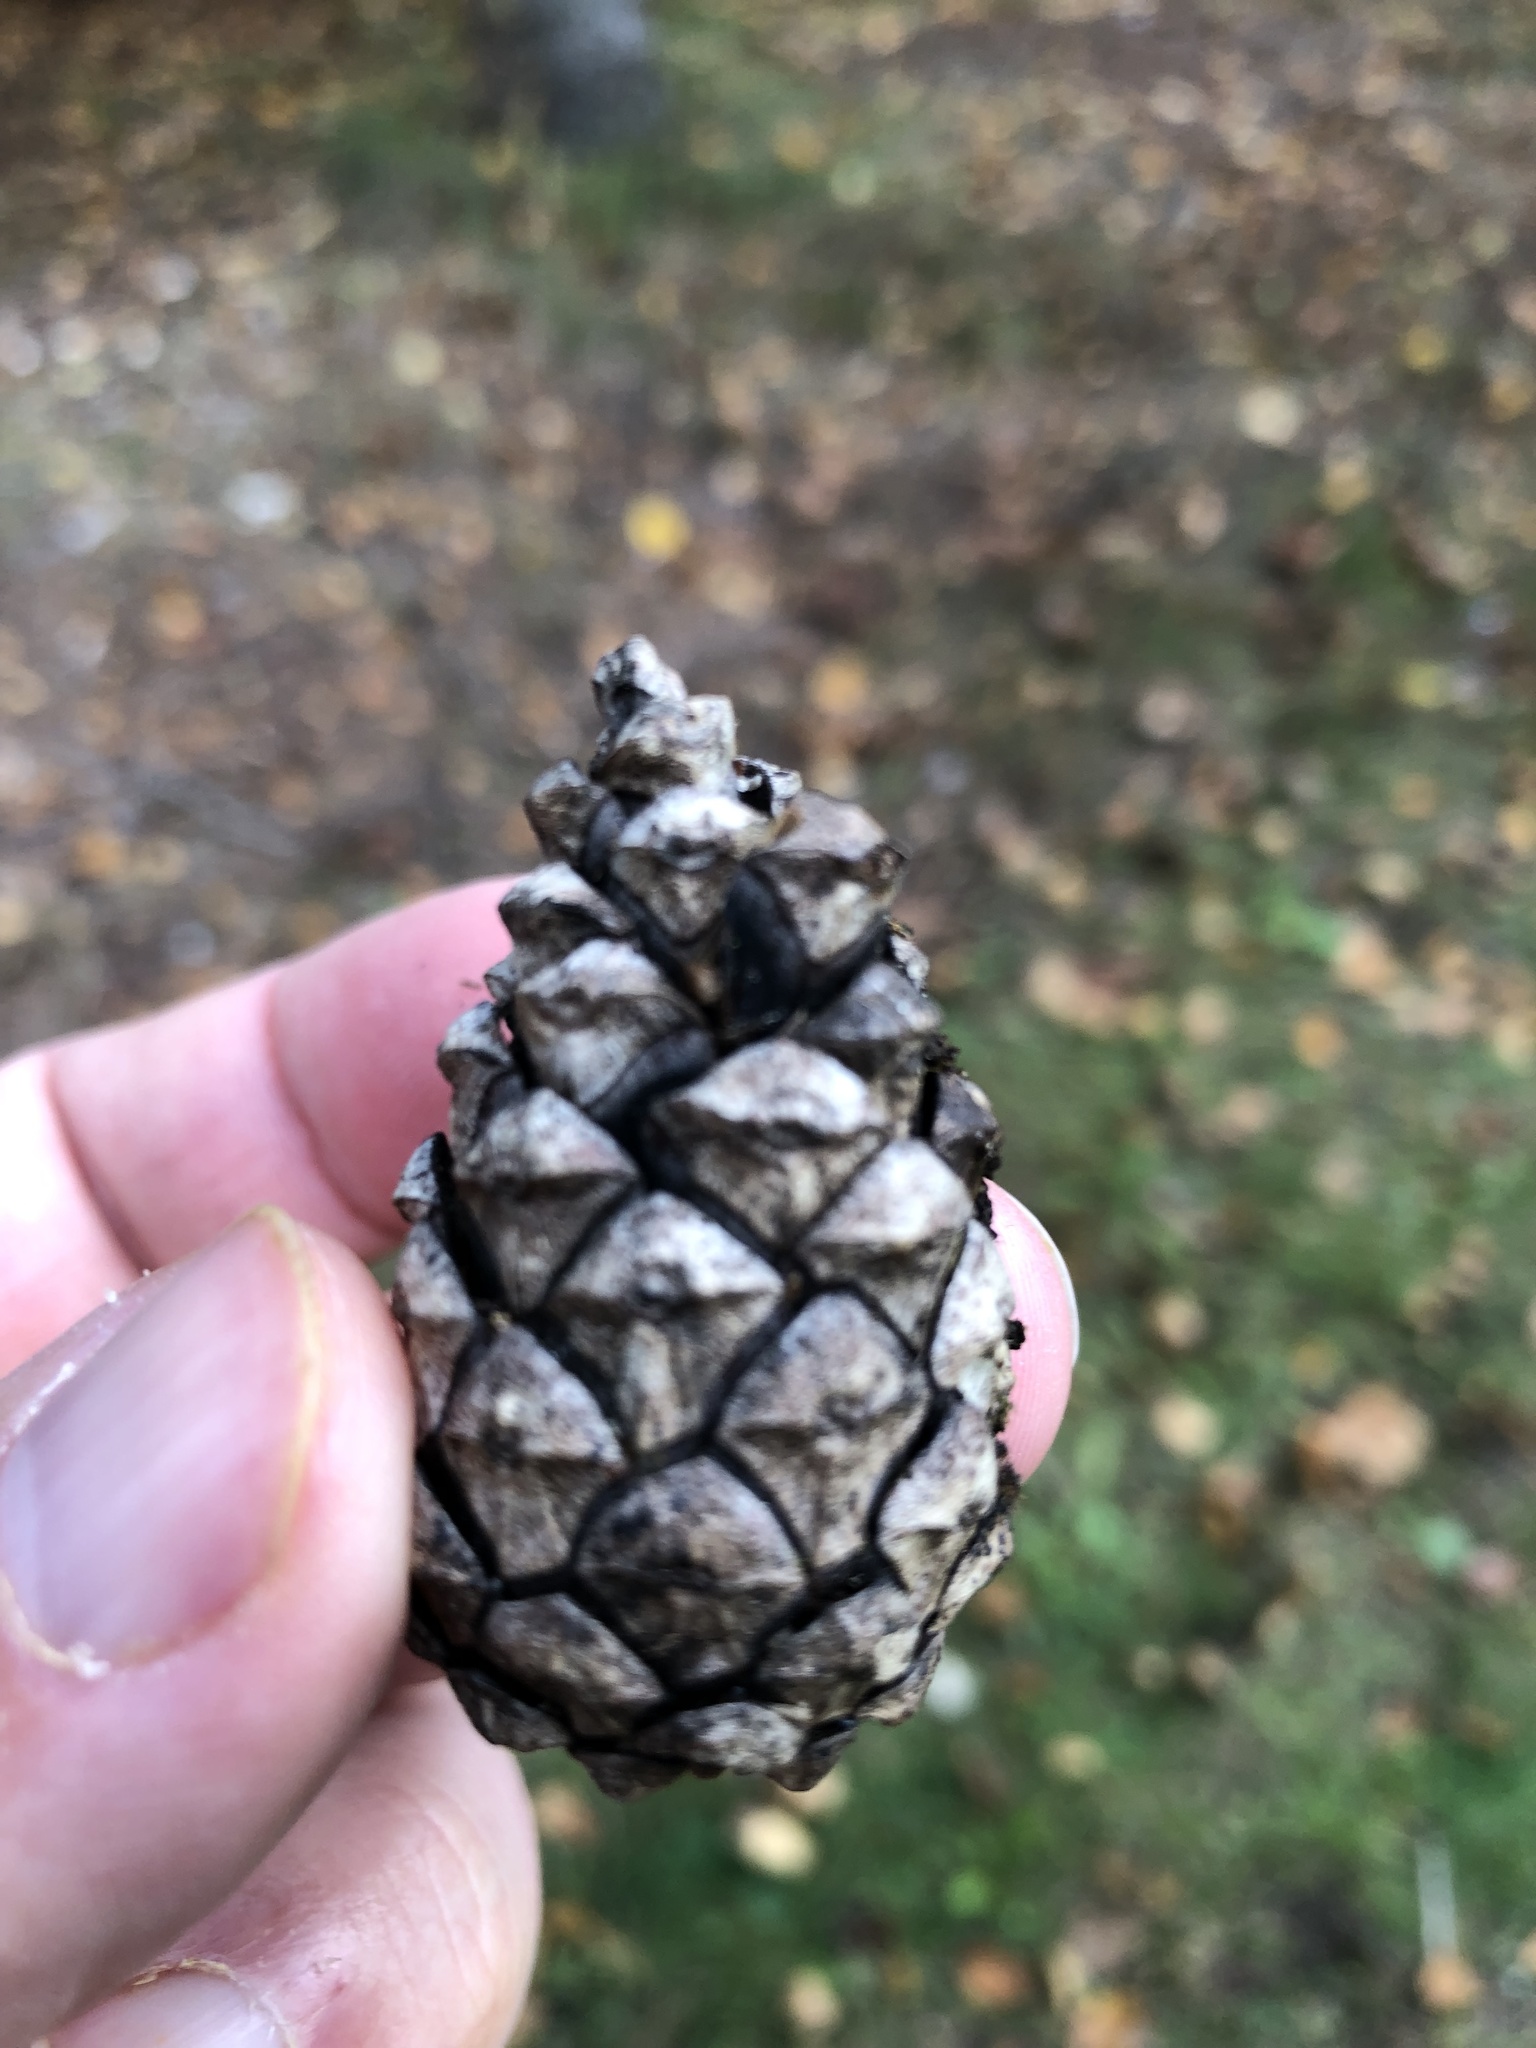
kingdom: Plantae
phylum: Tracheophyta
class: Pinopsida
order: Pinales
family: Pinaceae
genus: Pinus
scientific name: Pinus nigra
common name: Austrian pine
